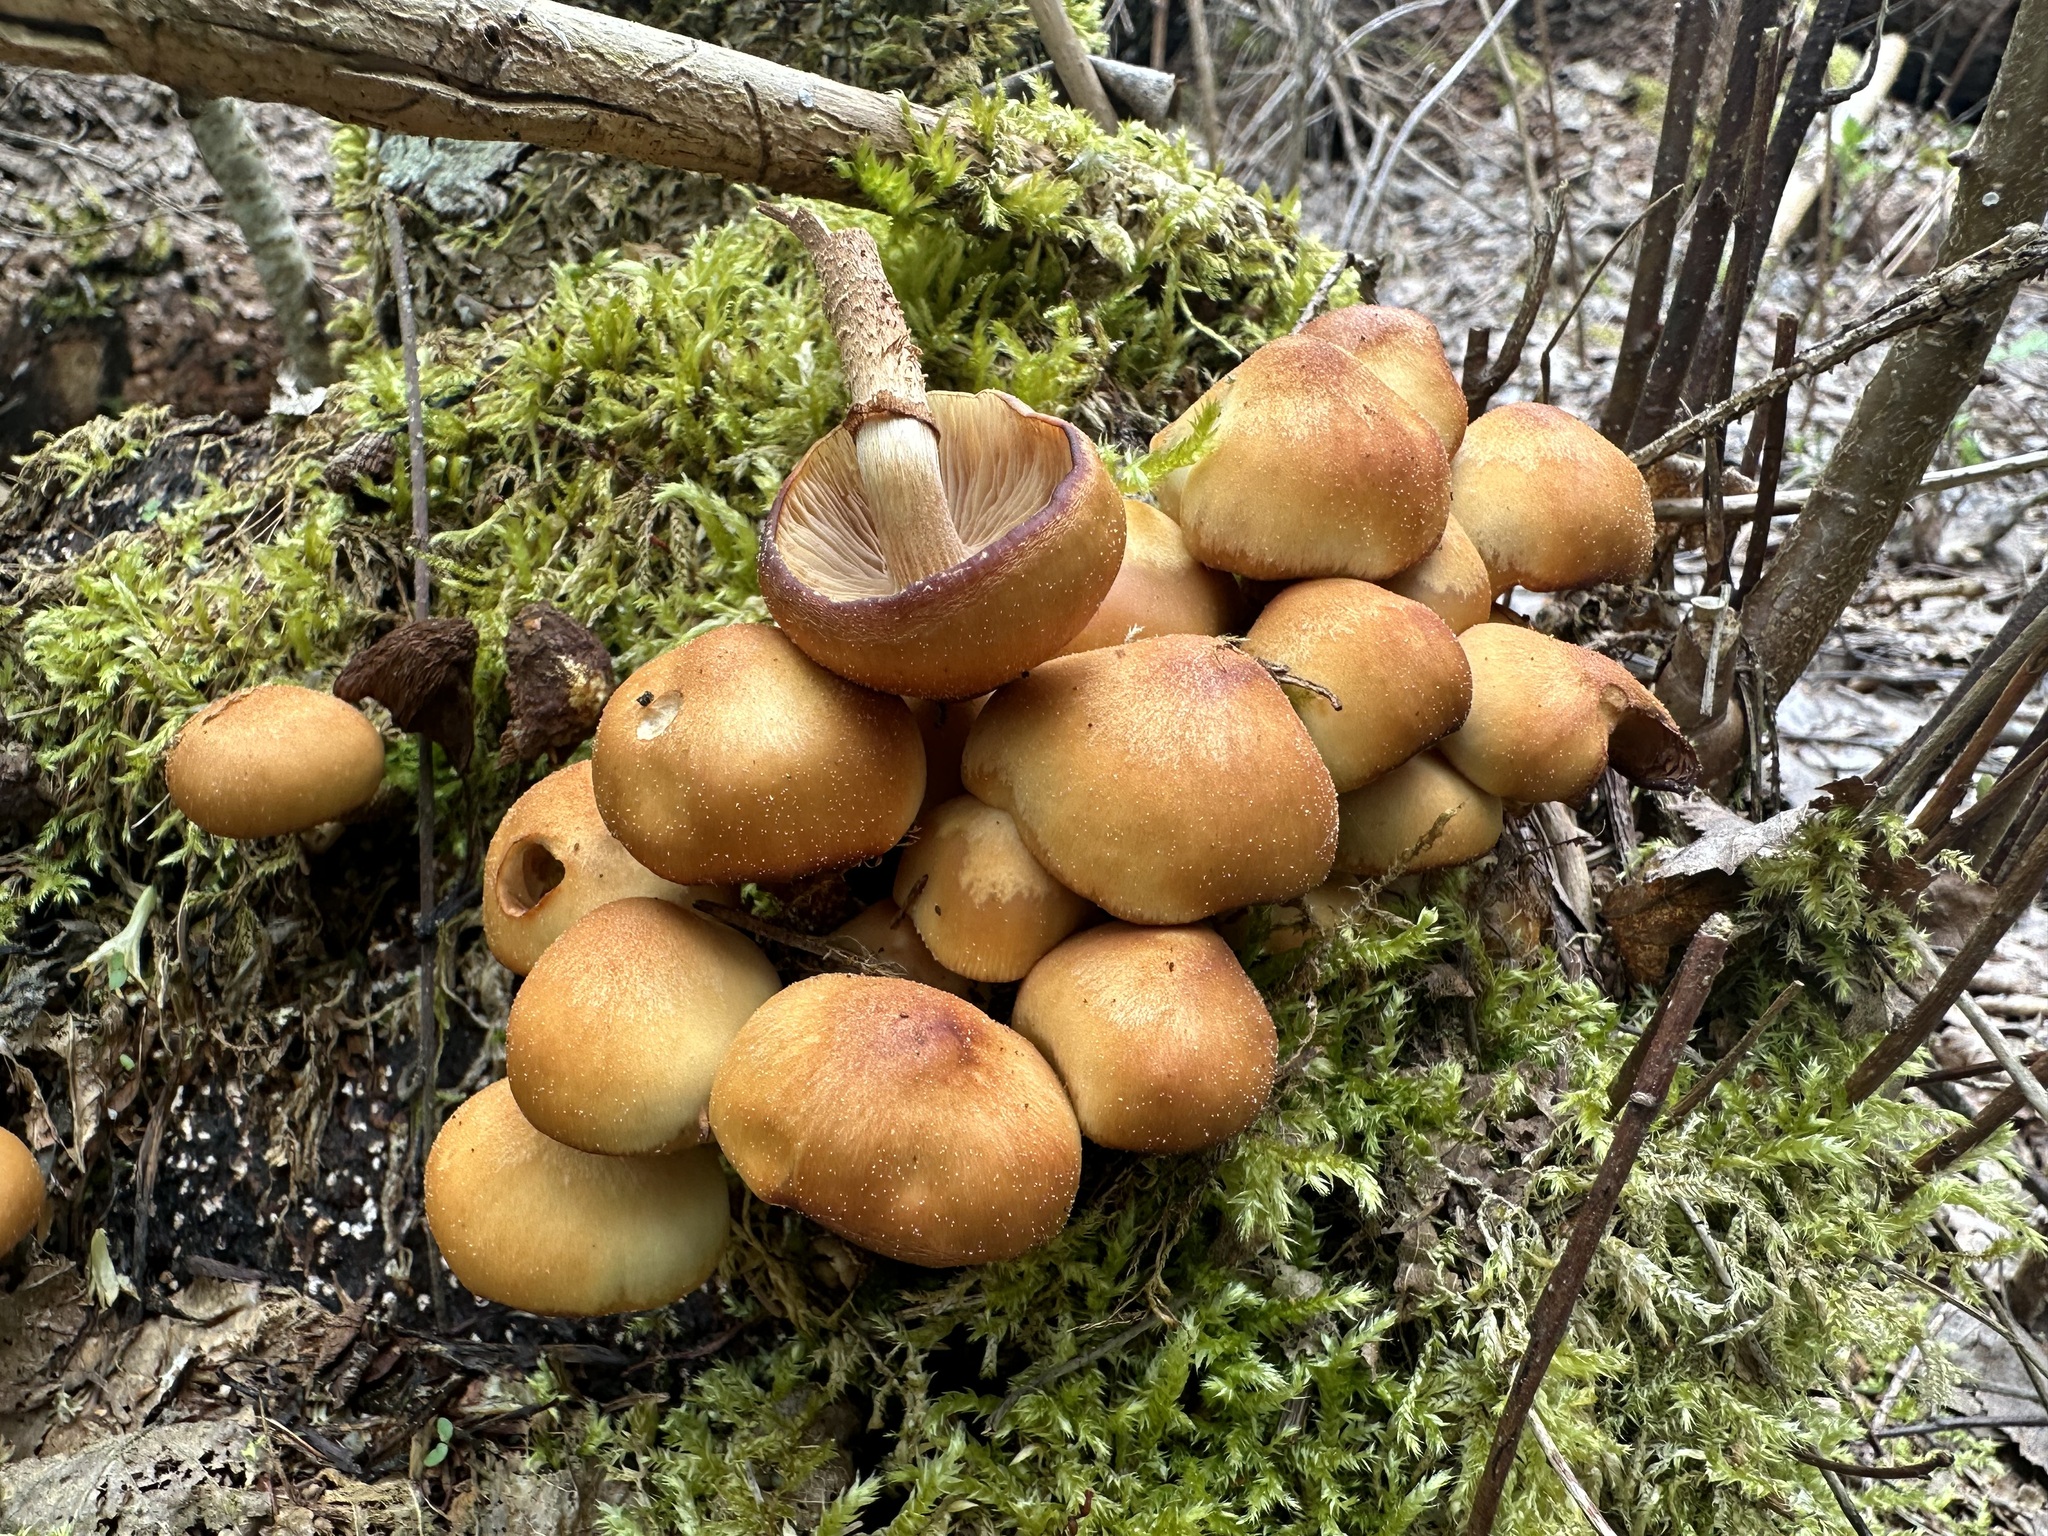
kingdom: Fungi
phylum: Basidiomycota
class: Agaricomycetes
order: Agaricales
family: Strophariaceae
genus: Kuehneromyces
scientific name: Kuehneromyces mutabilis
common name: Sheathed woodtuft
